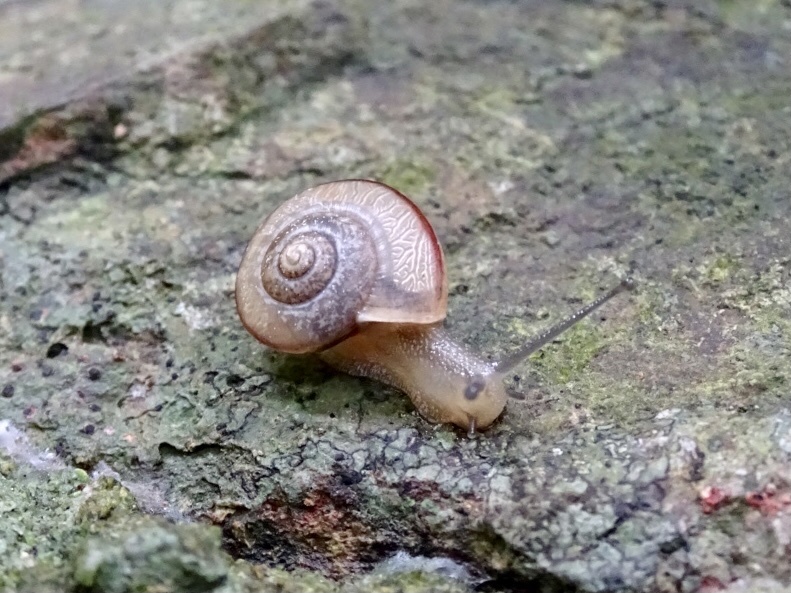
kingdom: Animalia
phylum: Mollusca
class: Gastropoda
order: Stylommatophora
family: Camaenidae
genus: Bradybaena
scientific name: Bradybaena similaris
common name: Asian trampsnail
